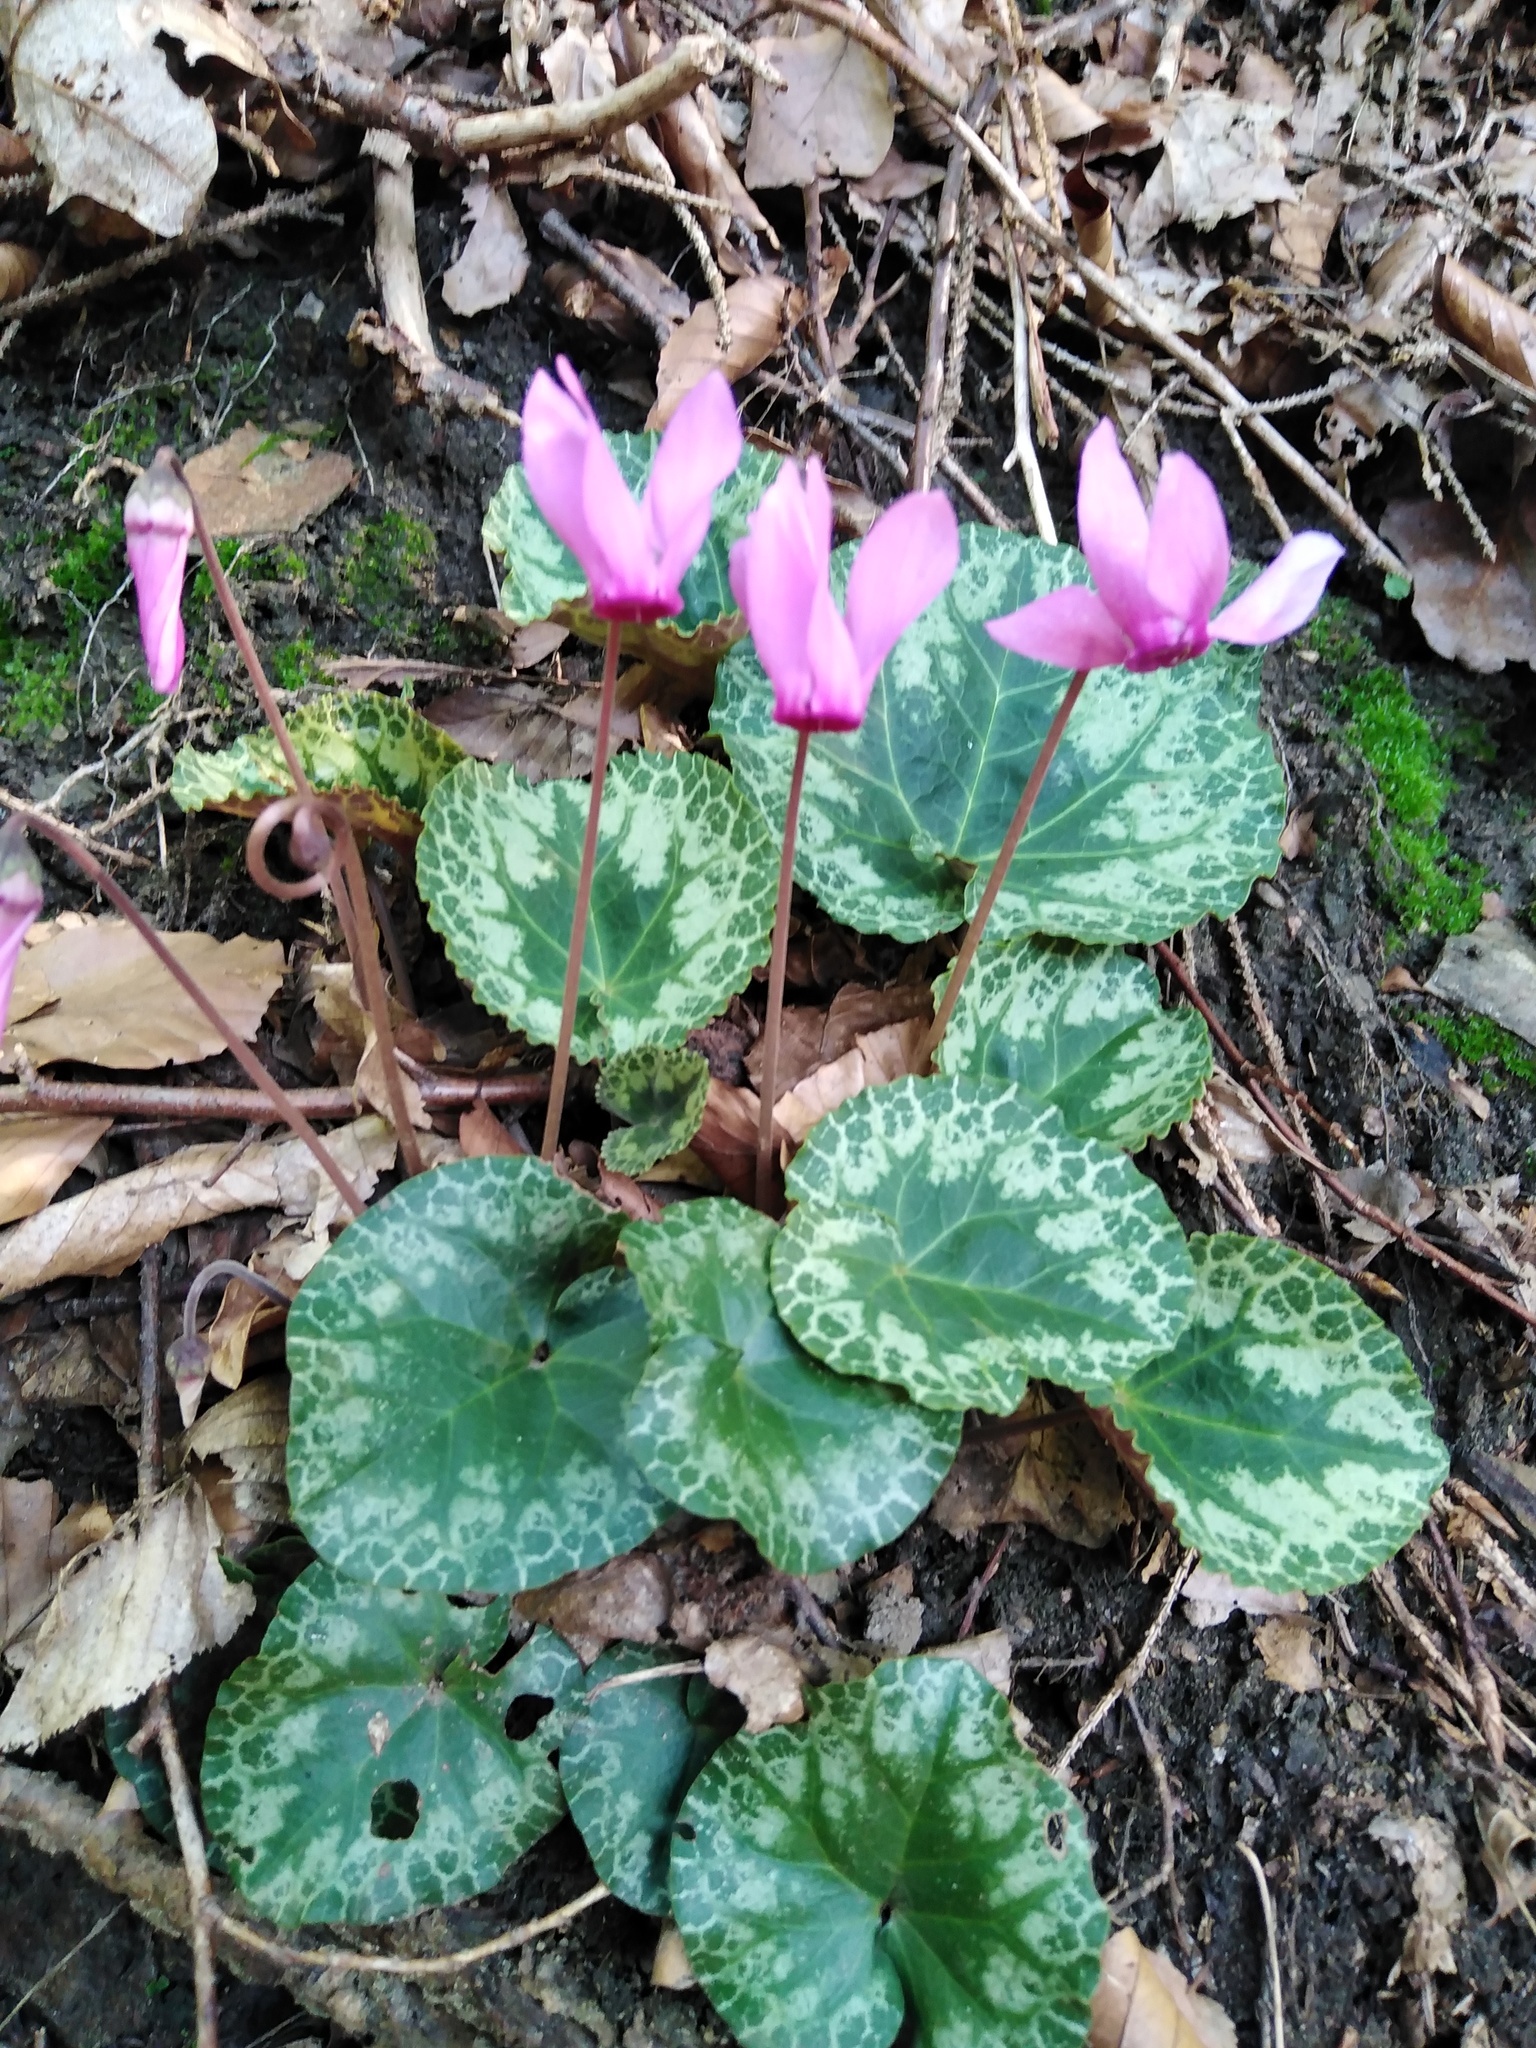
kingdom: Plantae
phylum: Tracheophyta
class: Magnoliopsida
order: Ericales
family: Primulaceae
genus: Cyclamen
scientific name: Cyclamen purpurascens
